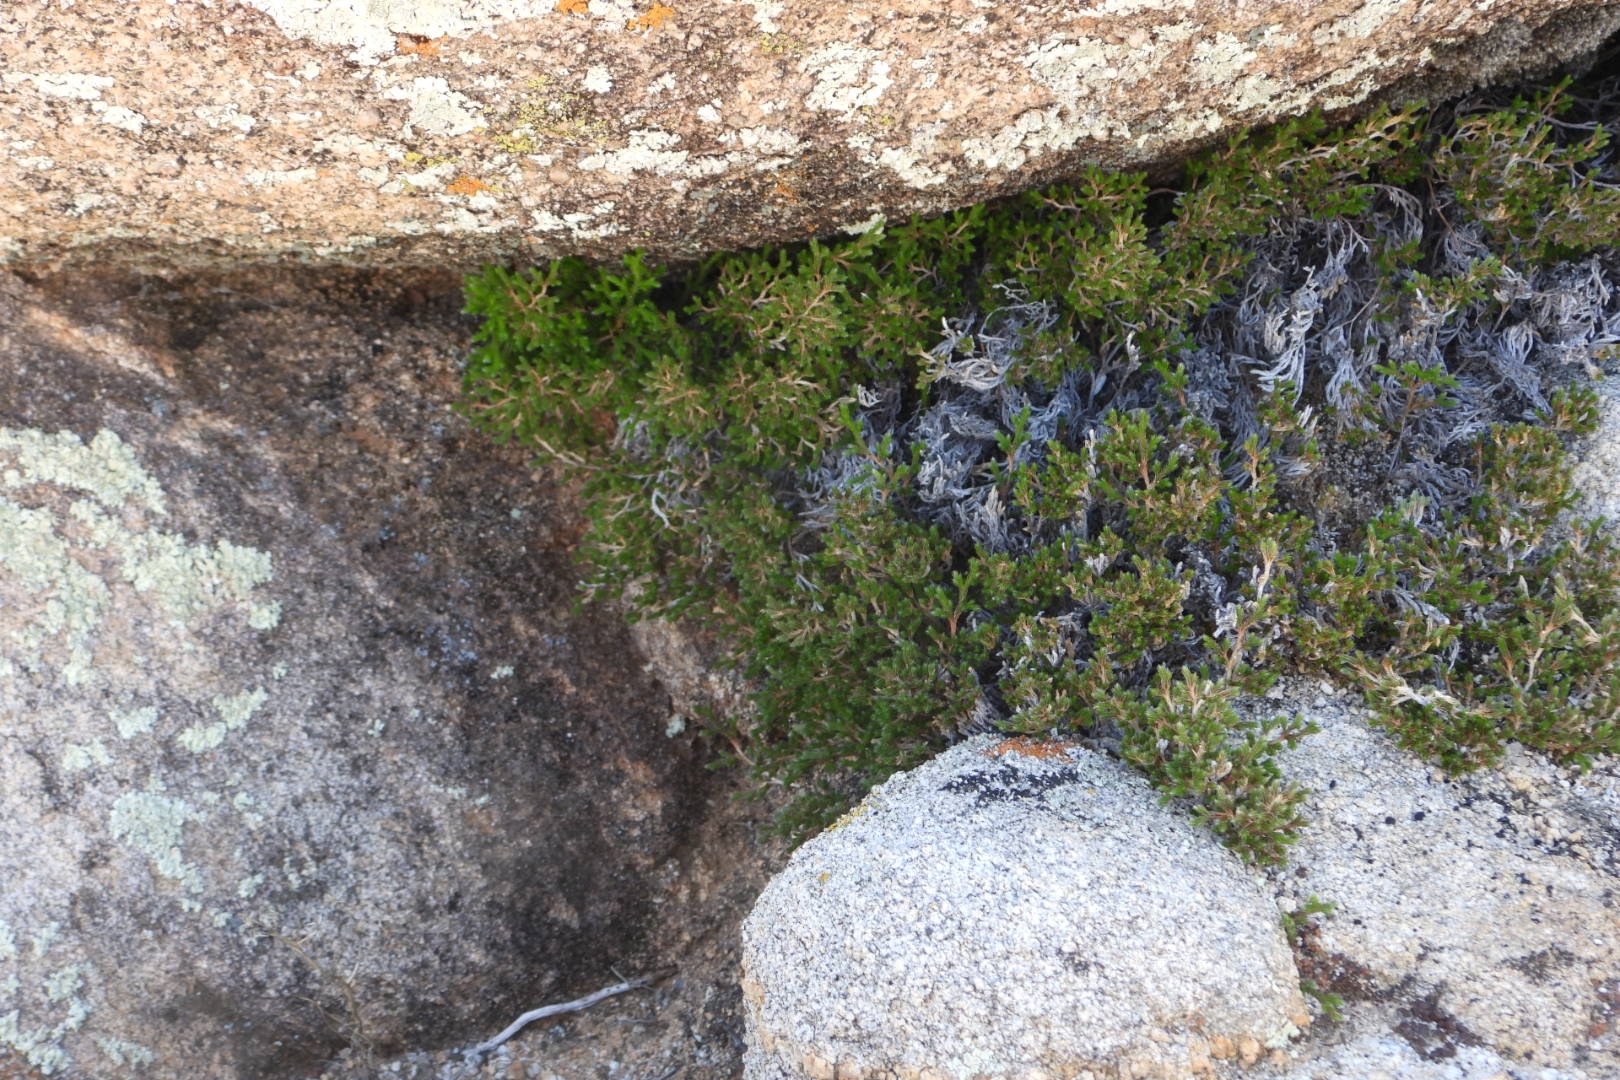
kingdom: Plantae
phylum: Tracheophyta
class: Lycopodiopsida
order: Selaginellales
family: Selaginellaceae
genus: Selaginella
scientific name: Selaginella bigelovii
